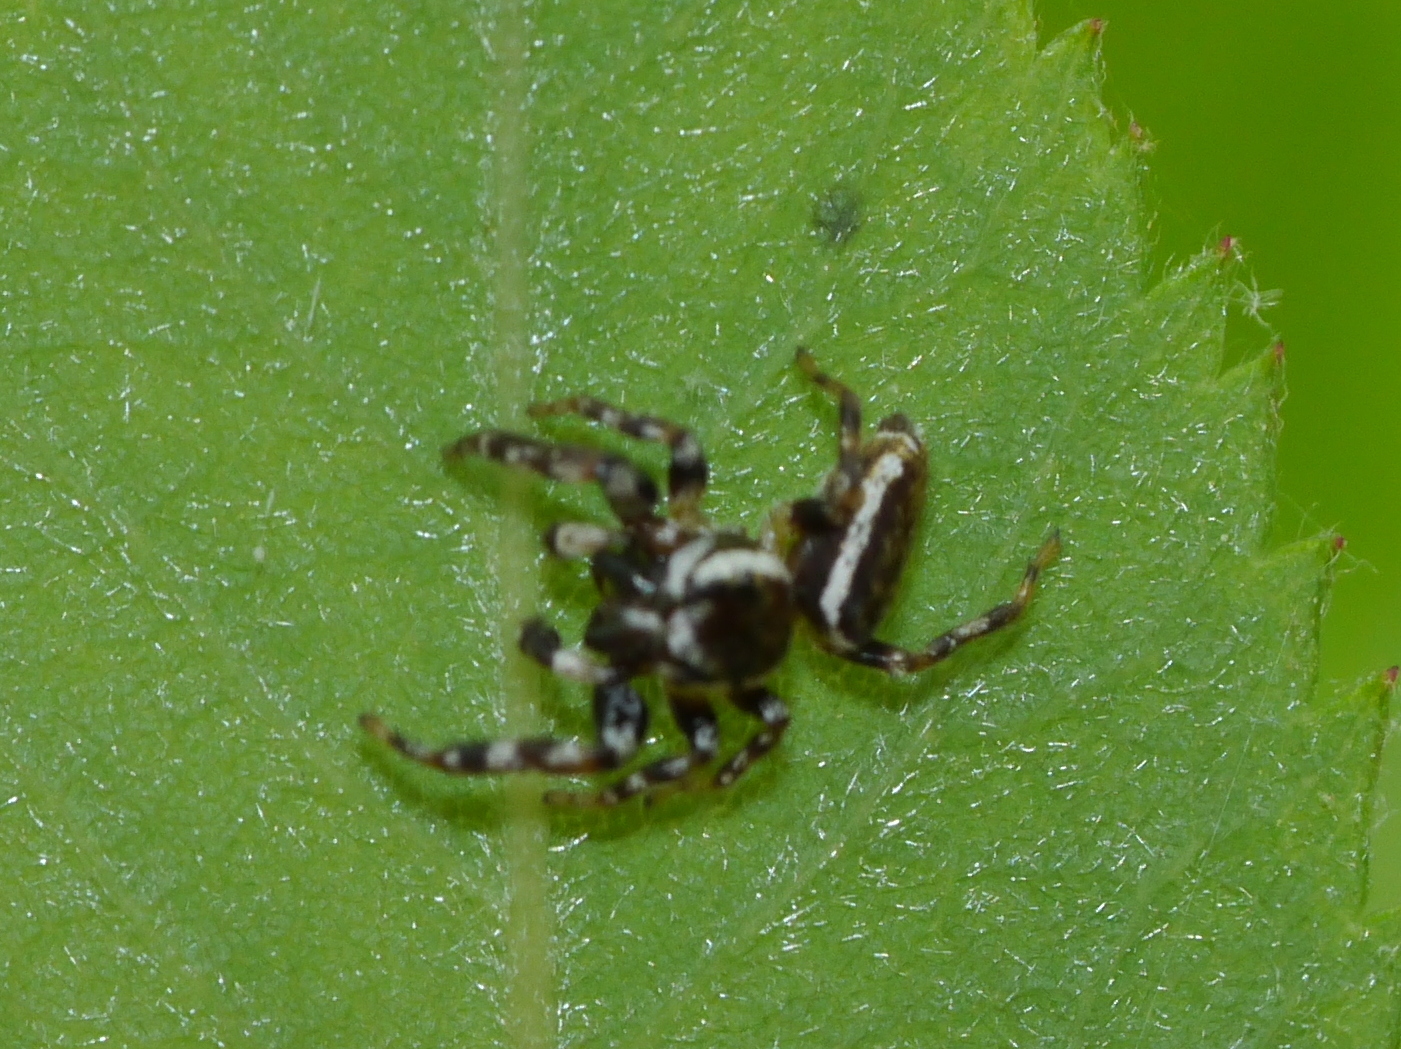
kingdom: Animalia
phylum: Arthropoda
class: Arachnida
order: Araneae
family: Salticidae
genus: Pelegrina
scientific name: Pelegrina proterva
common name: Common white-cheeked jumping spider
